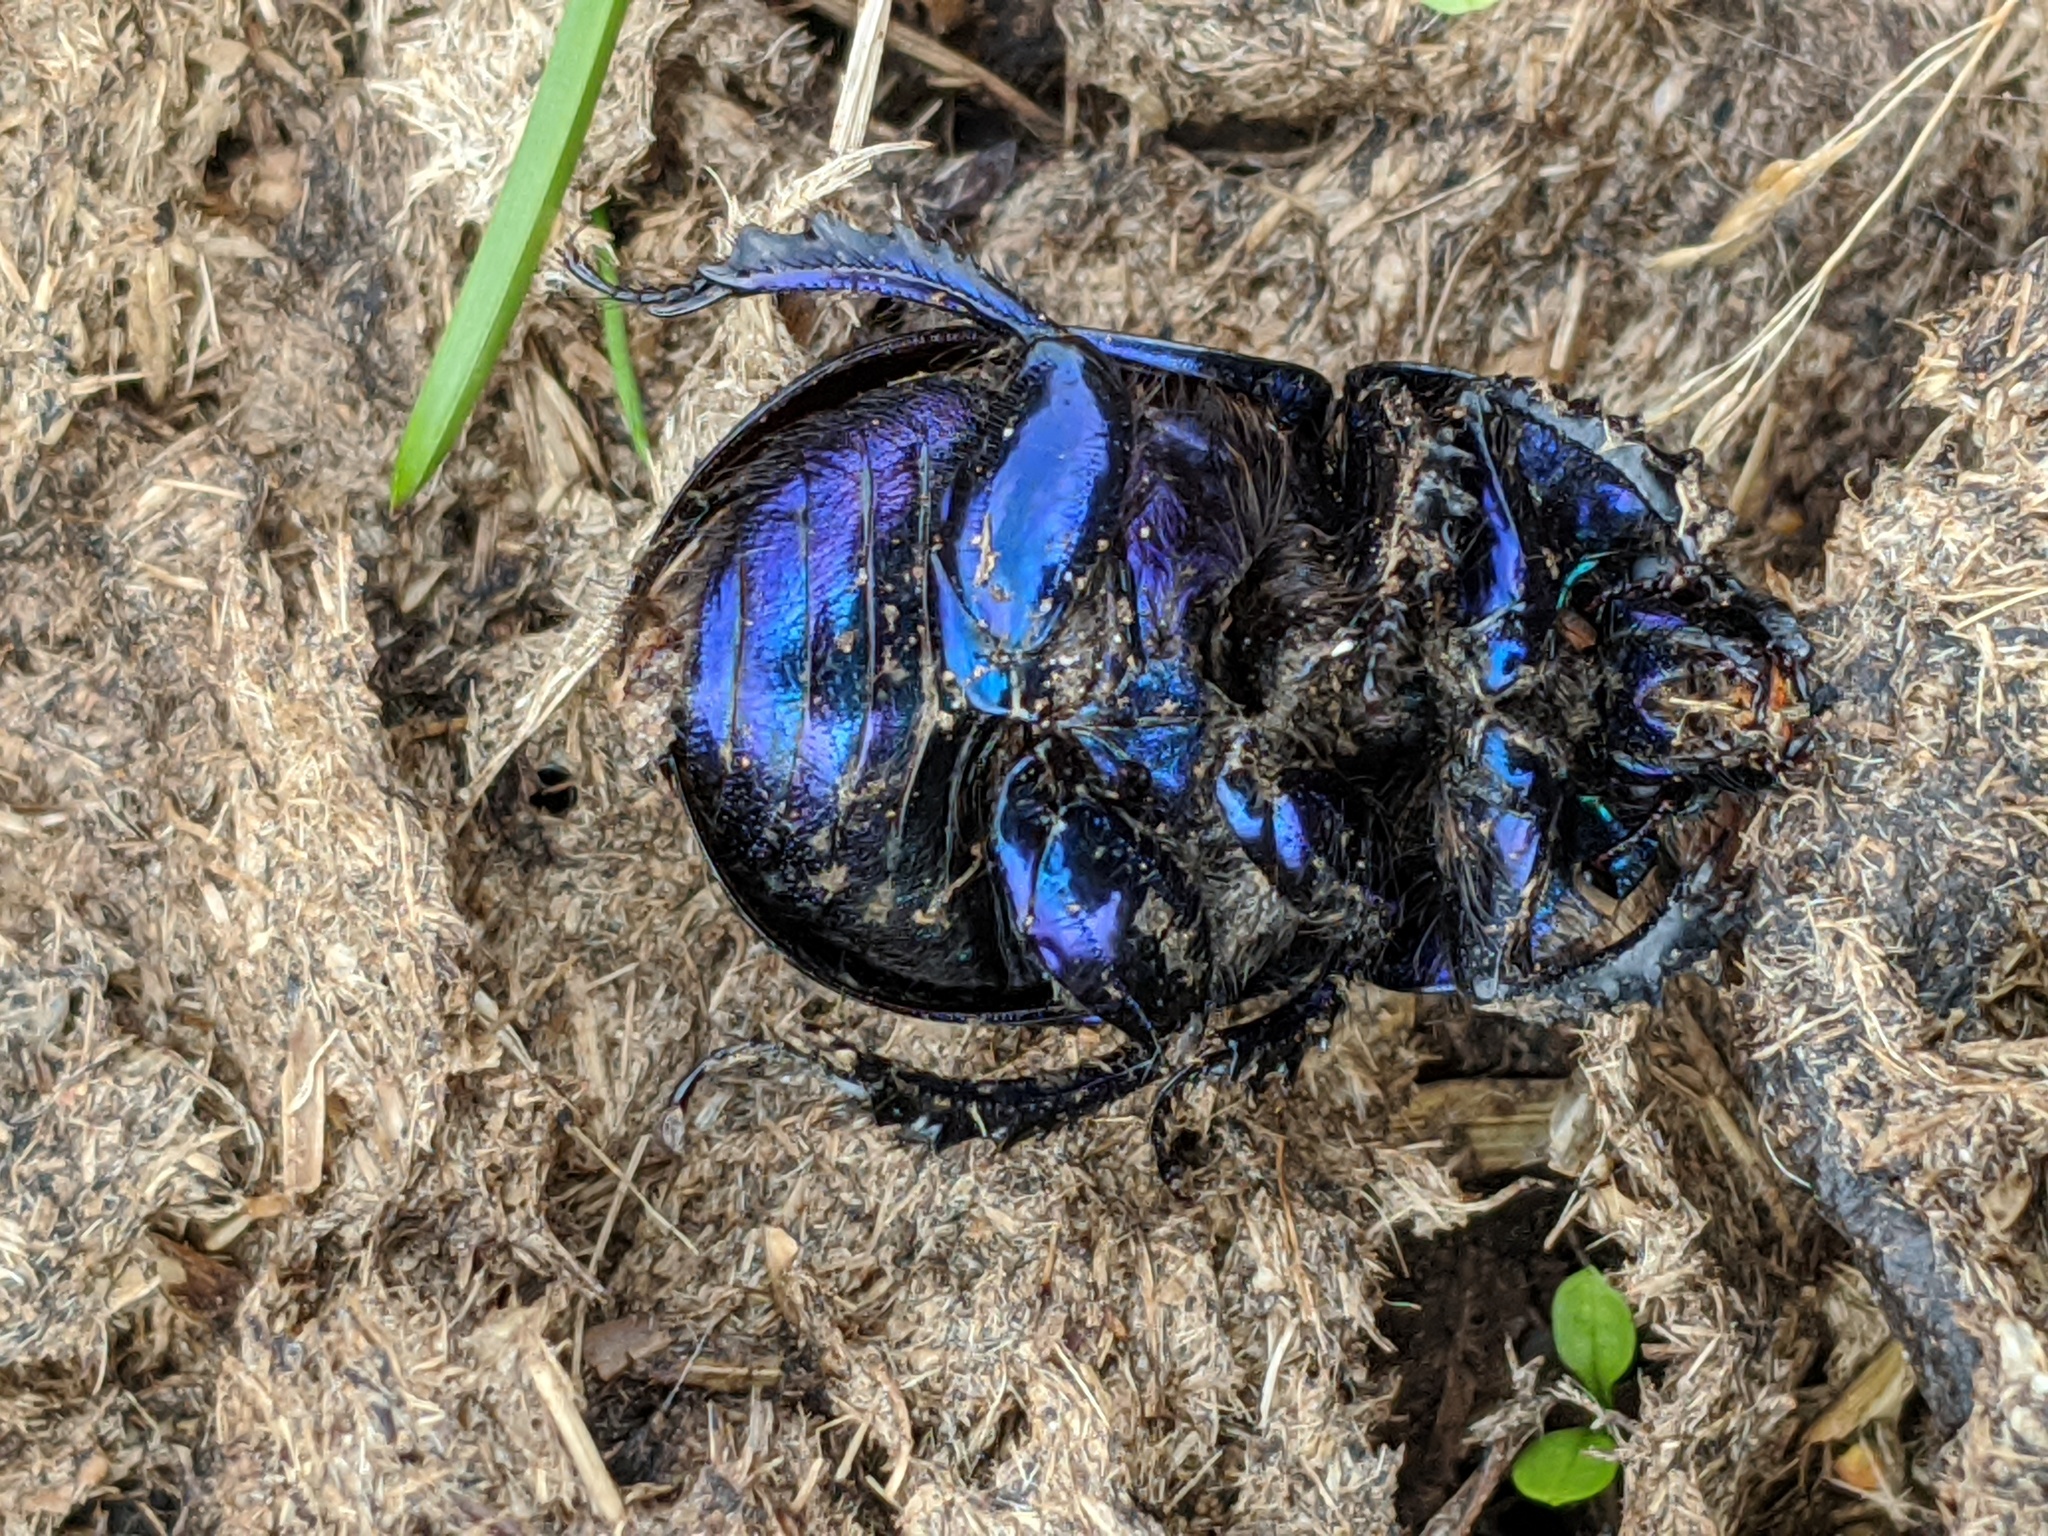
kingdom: Animalia
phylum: Arthropoda
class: Insecta
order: Coleoptera
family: Geotrupidae
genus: Anoplotrupes
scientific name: Anoplotrupes balyi
